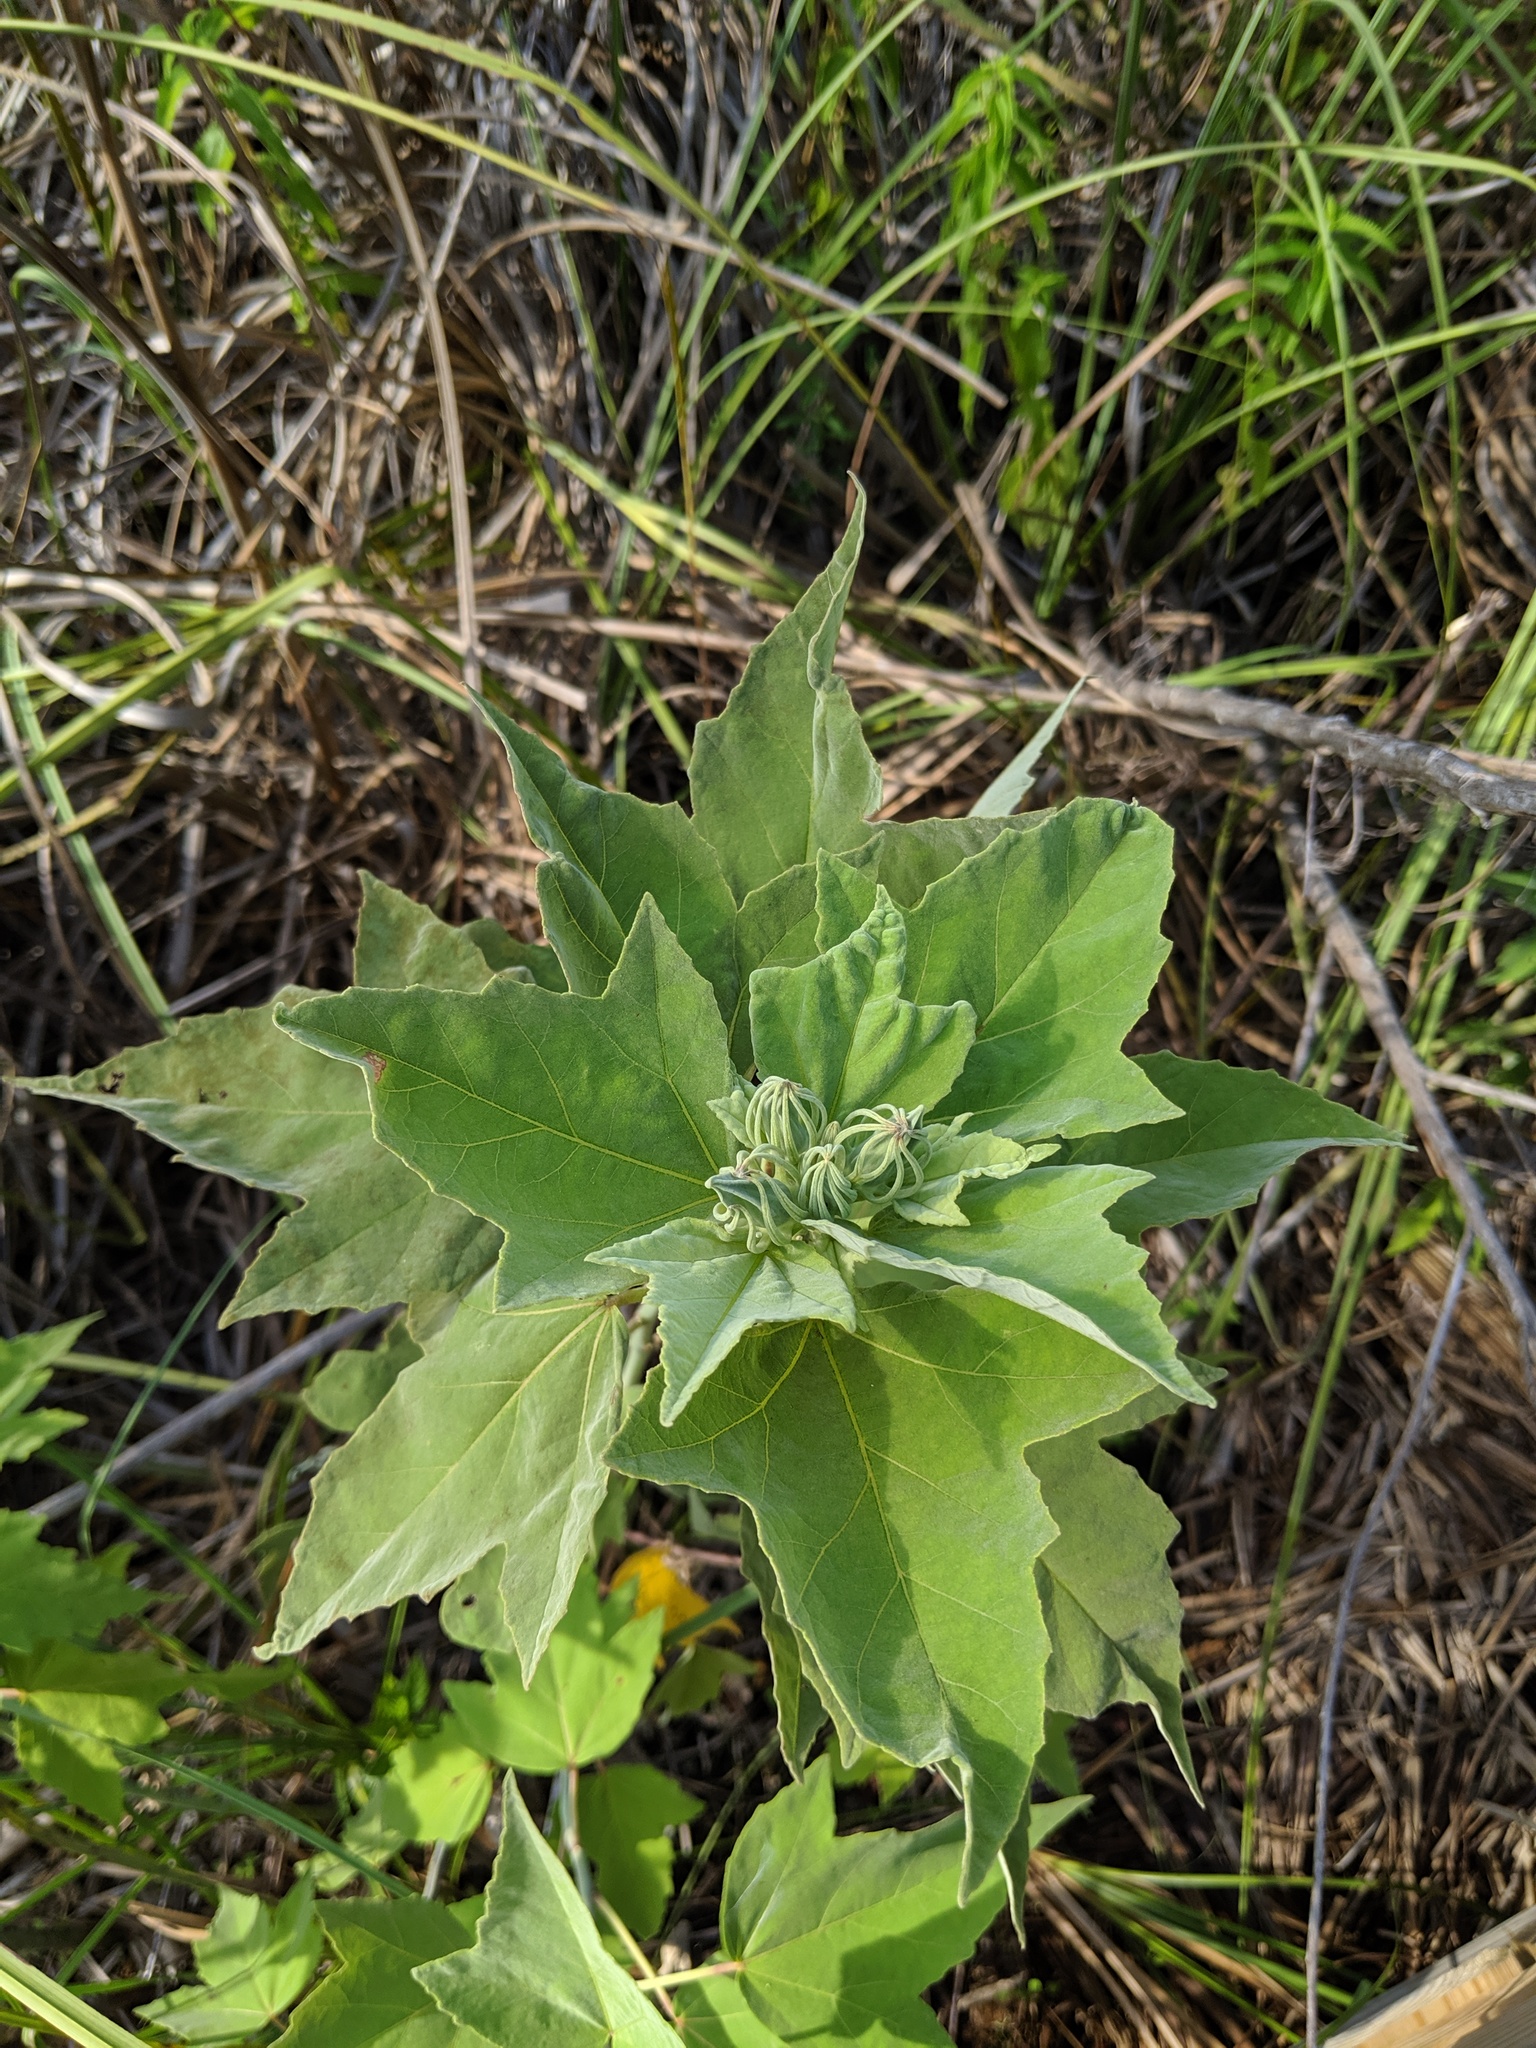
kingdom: Plantae
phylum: Tracheophyta
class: Magnoliopsida
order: Malvales
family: Malvaceae
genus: Hibiscus
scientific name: Hibiscus grandiflorus
